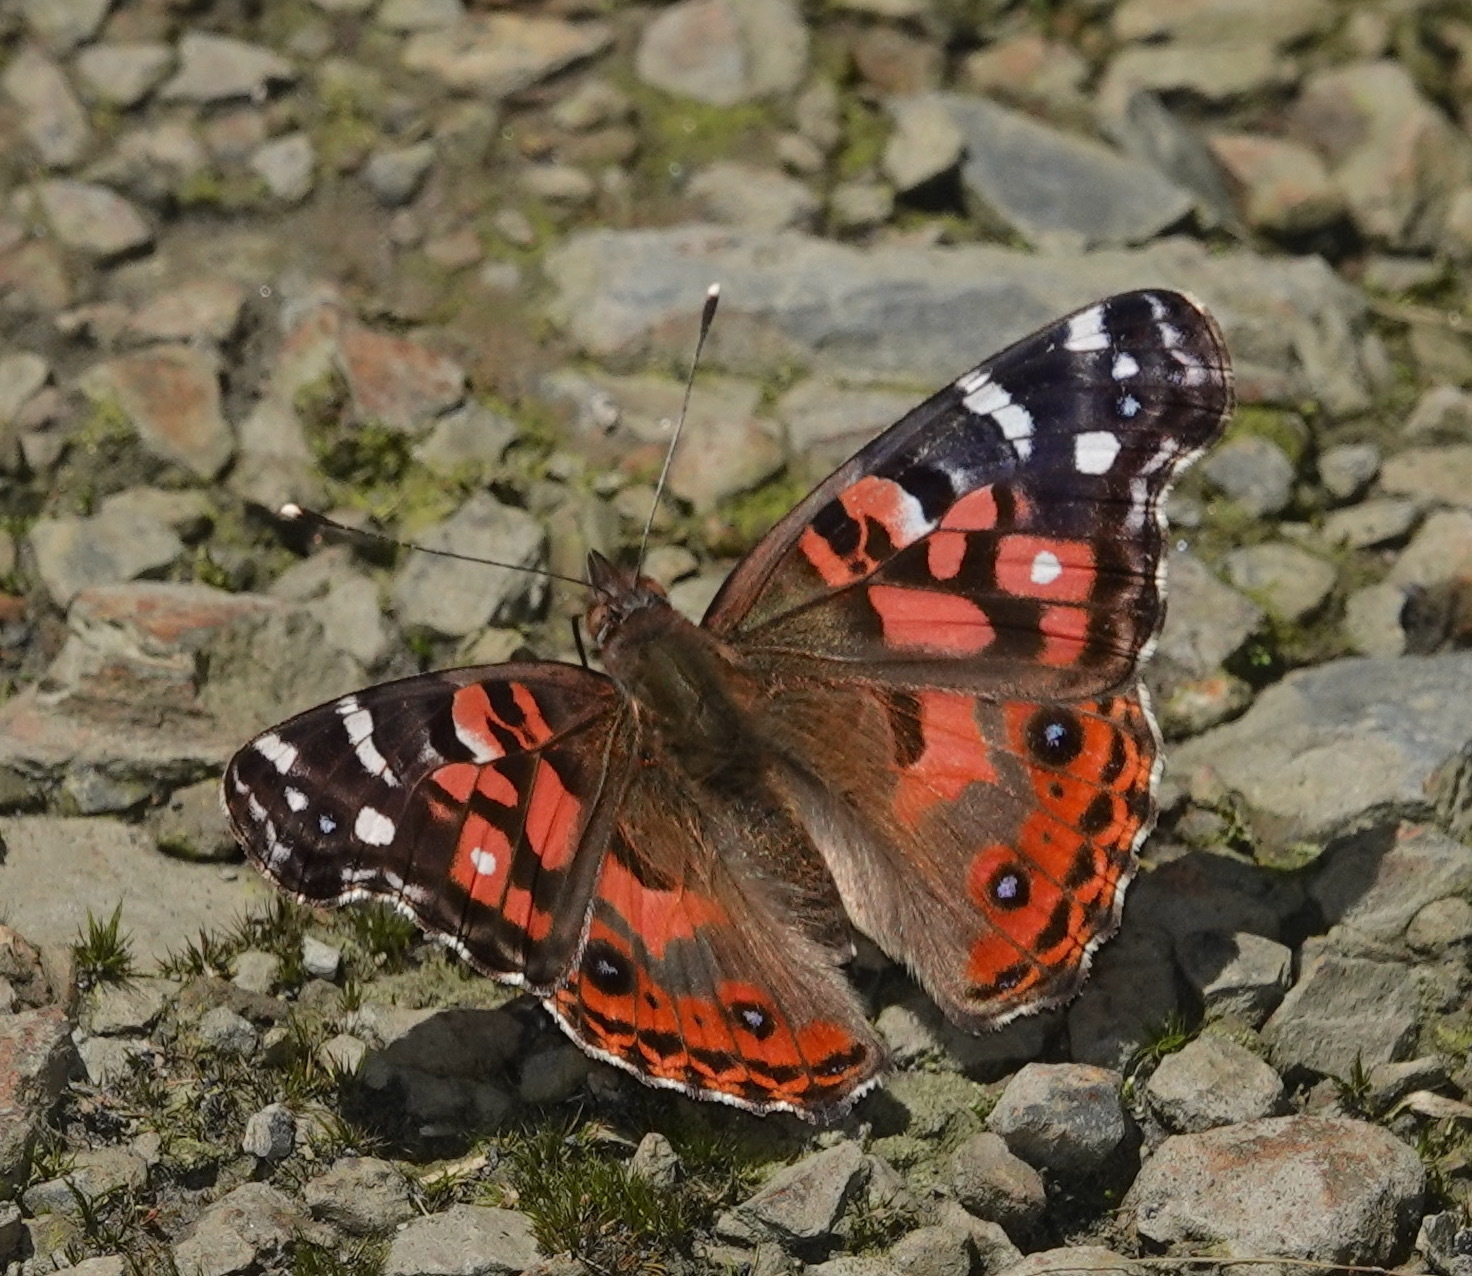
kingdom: Animalia
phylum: Arthropoda
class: Insecta
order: Lepidoptera
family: Nymphalidae
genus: Vanessa
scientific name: Vanessa braziliensis
